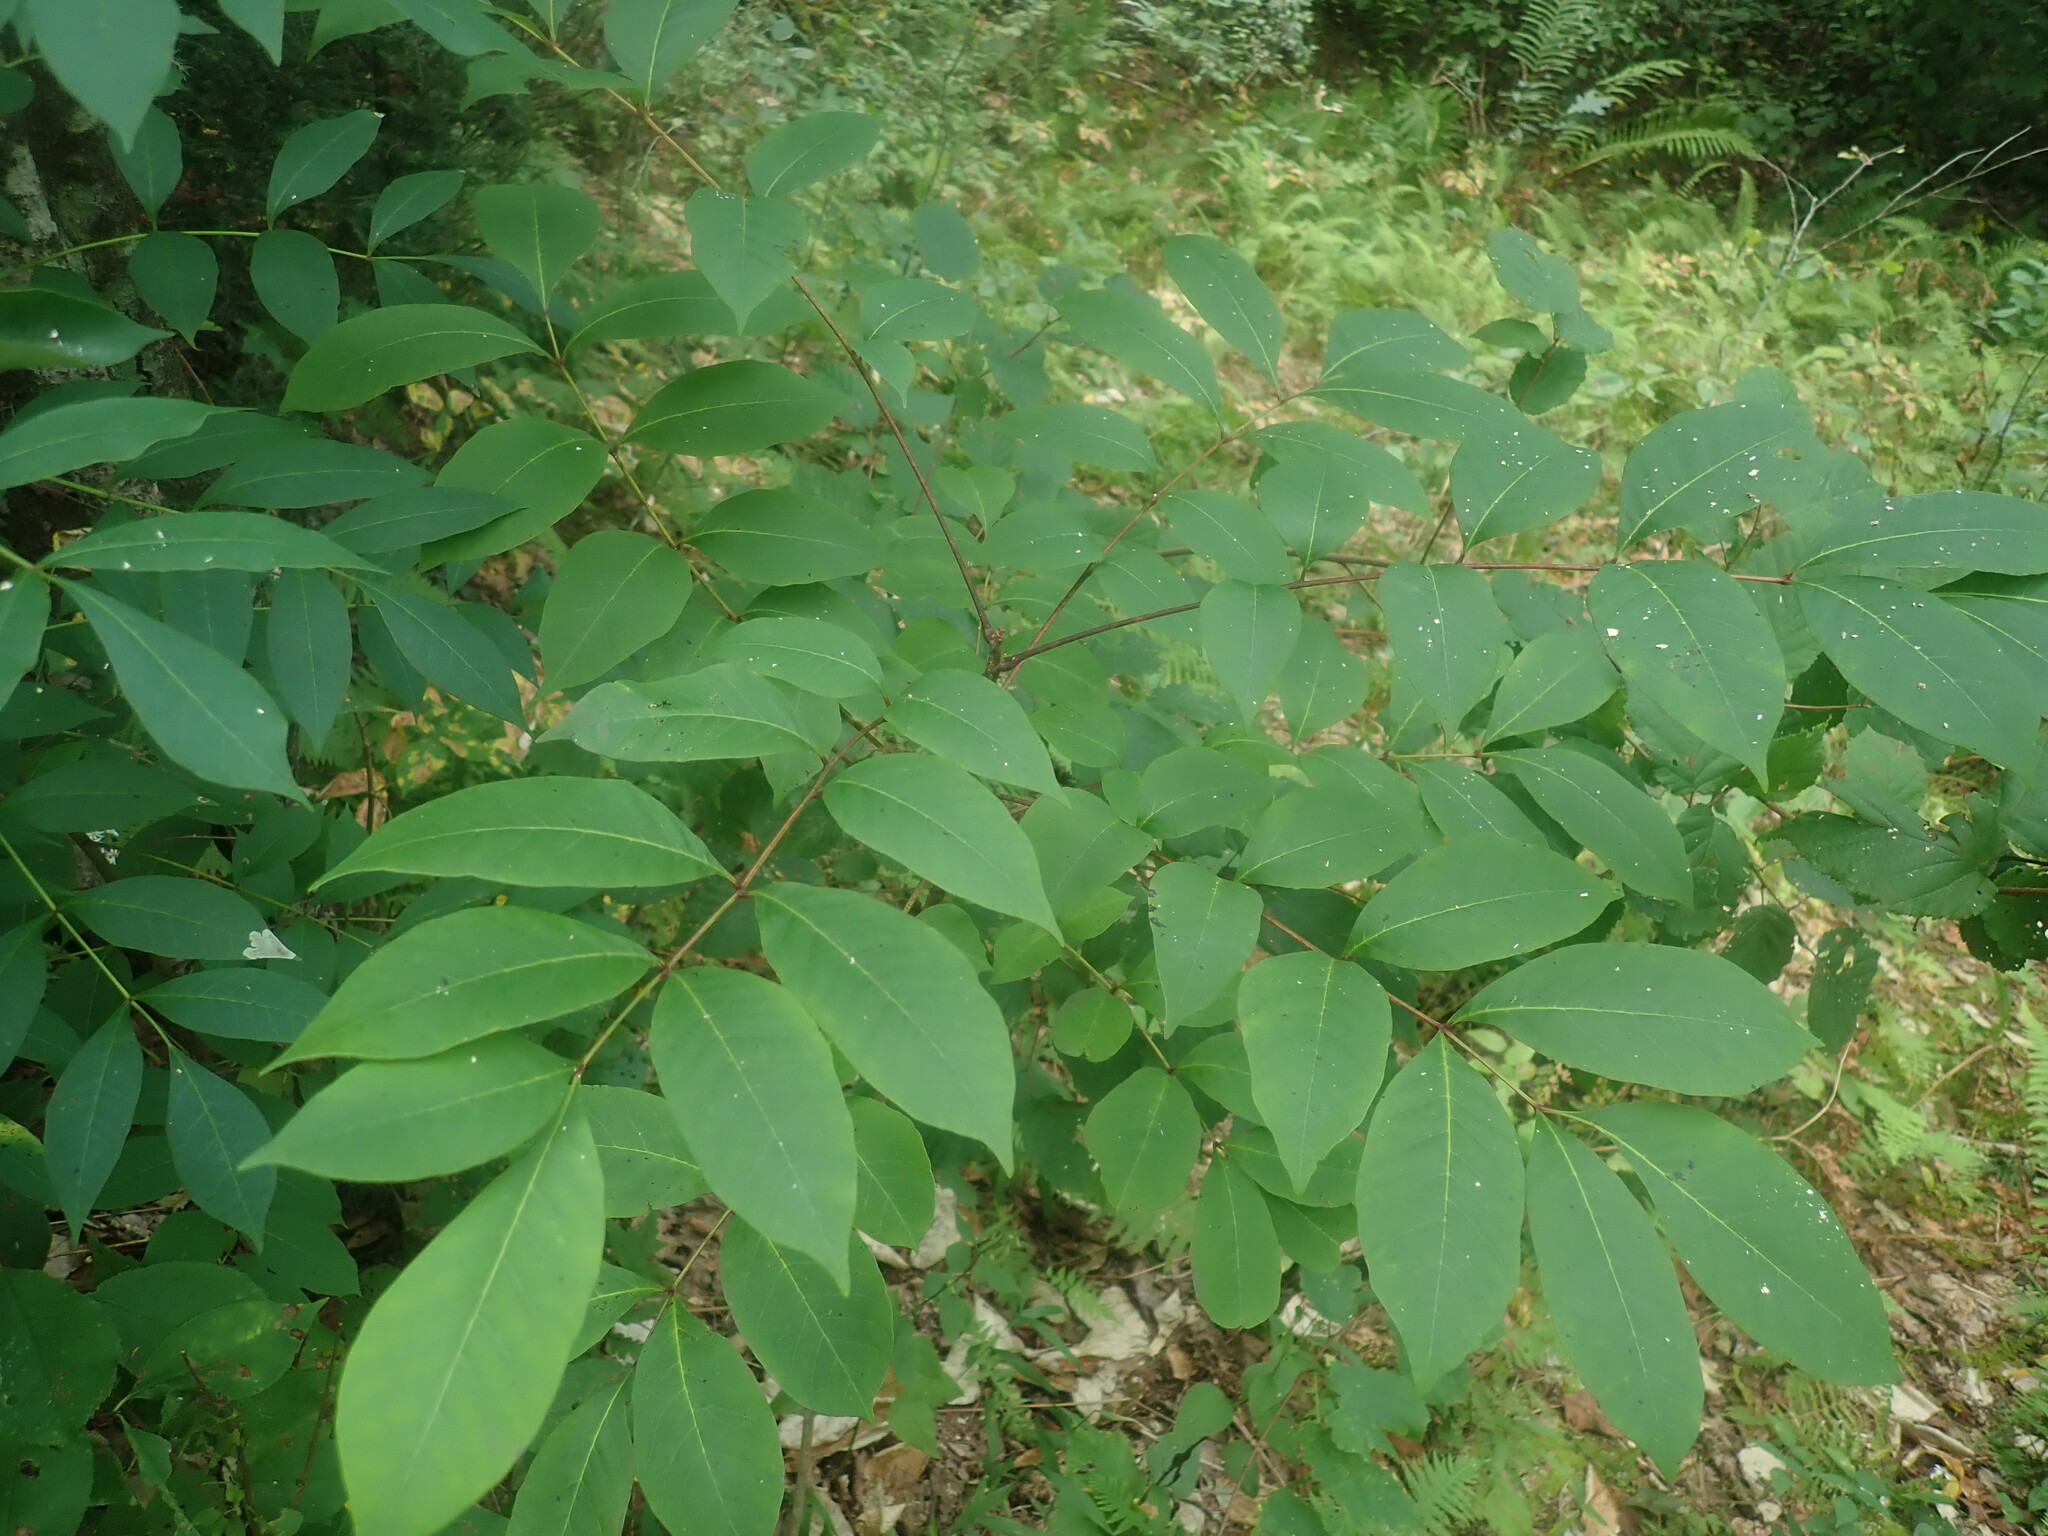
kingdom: Plantae
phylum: Tracheophyta
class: Magnoliopsida
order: Sapindales
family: Anacardiaceae
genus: Toxicodendron
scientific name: Toxicodendron vernix
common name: Poison sumac
